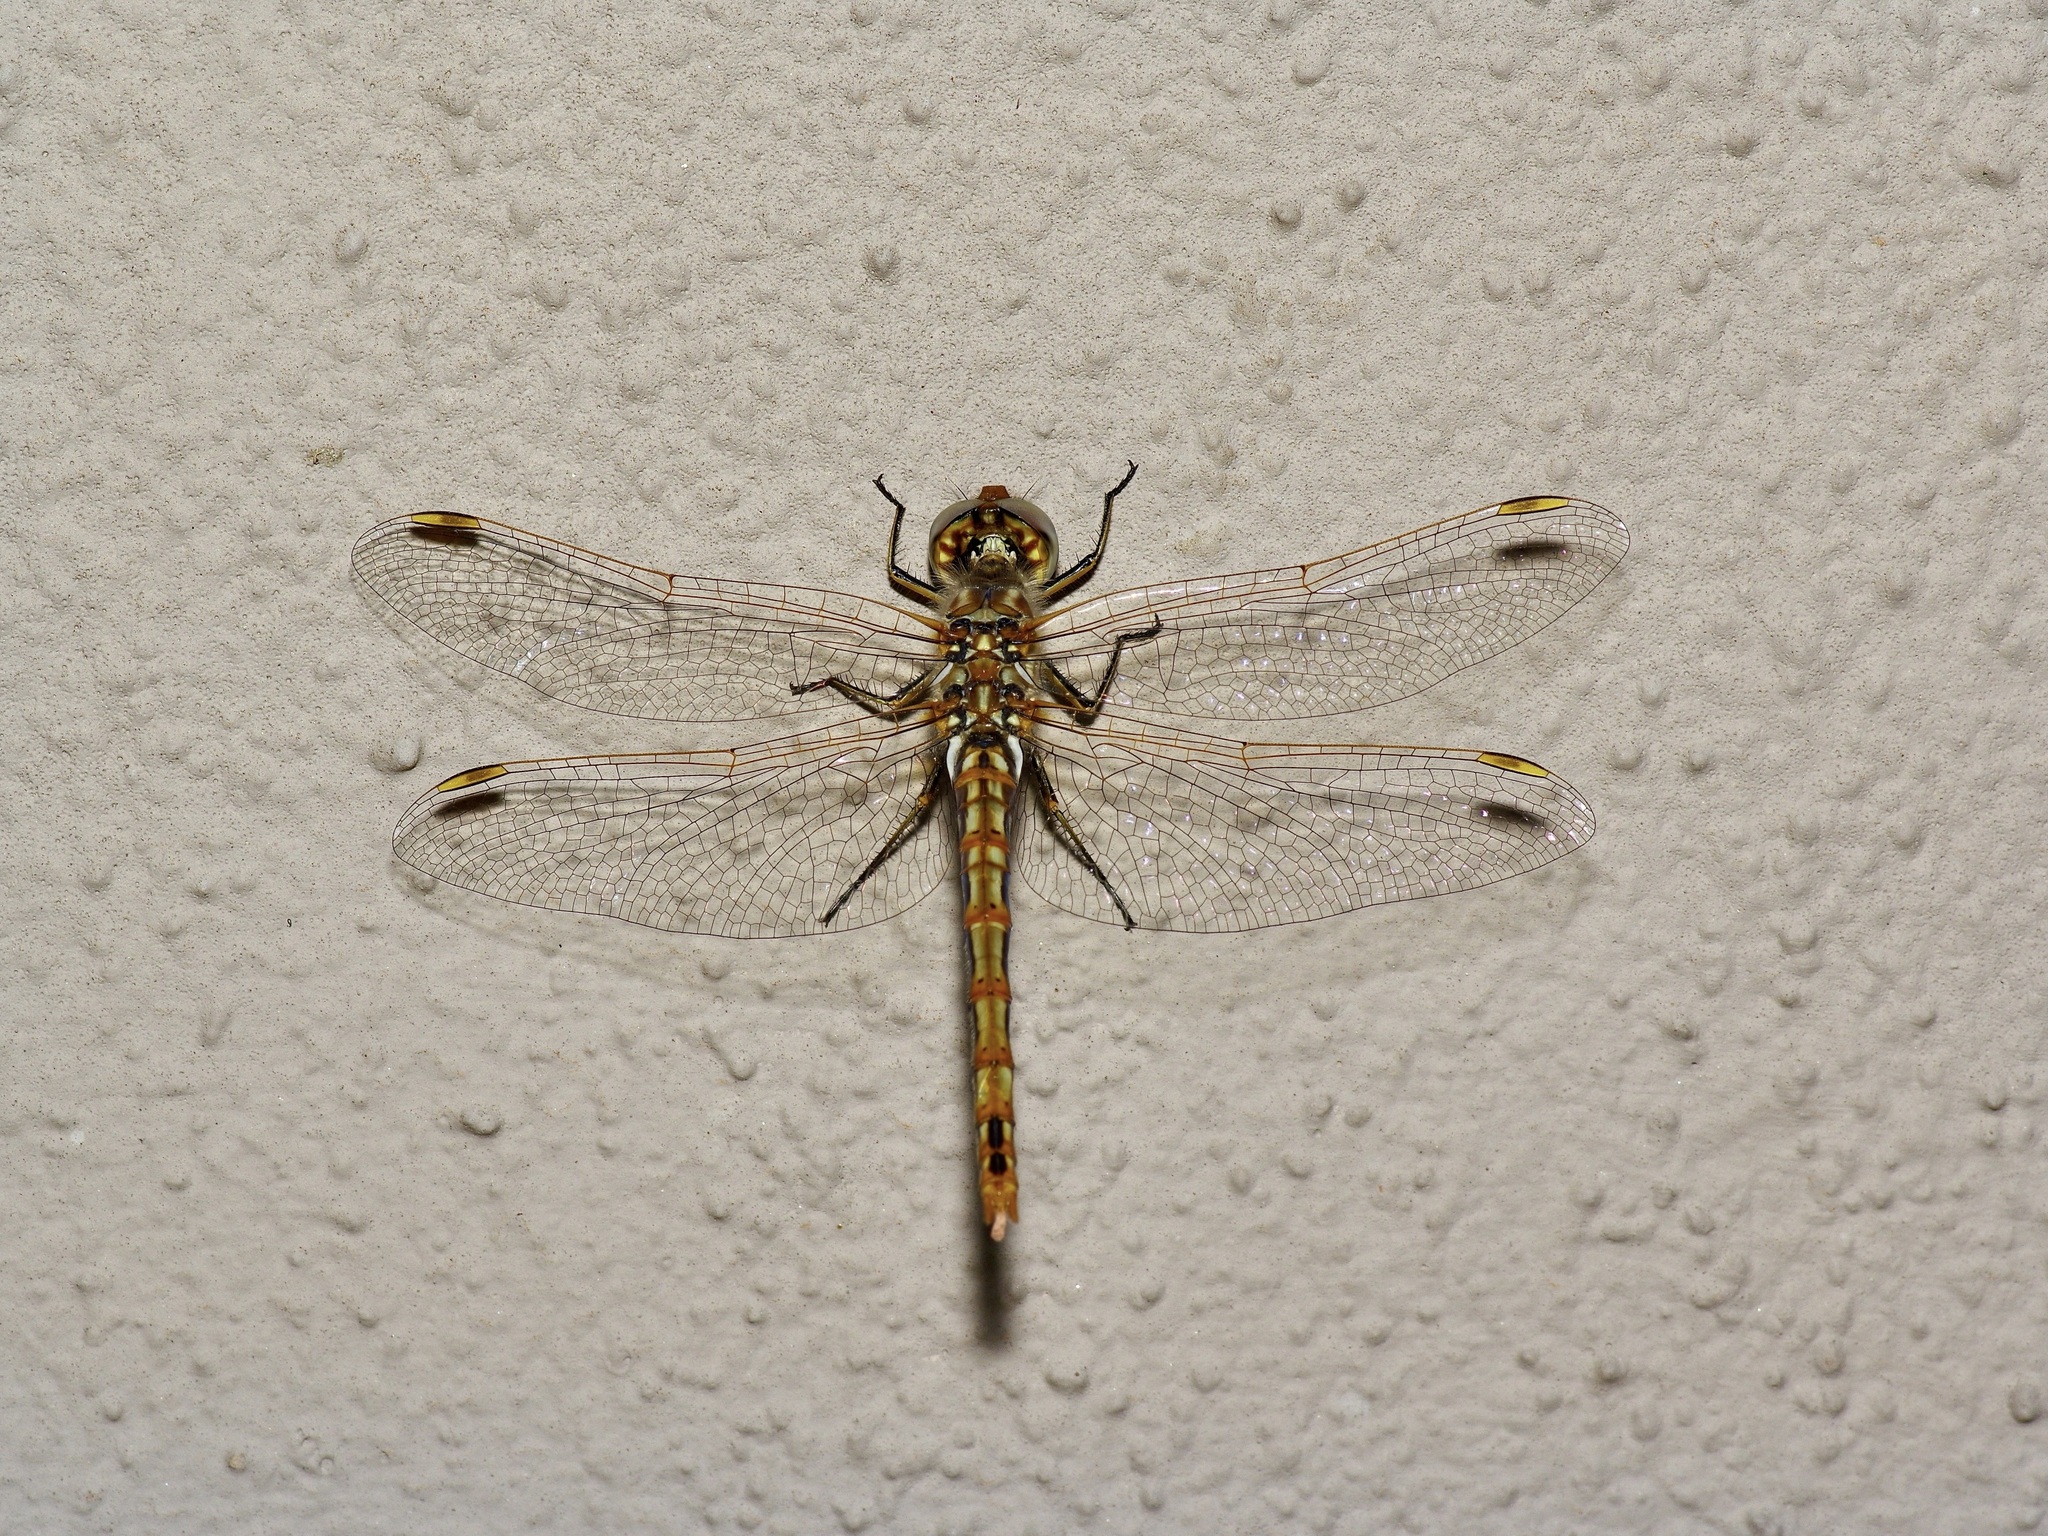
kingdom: Animalia
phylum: Arthropoda
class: Insecta
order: Odonata
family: Libellulidae
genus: Sympetrum
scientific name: Sympetrum corruptum
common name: Variegated meadowhawk
